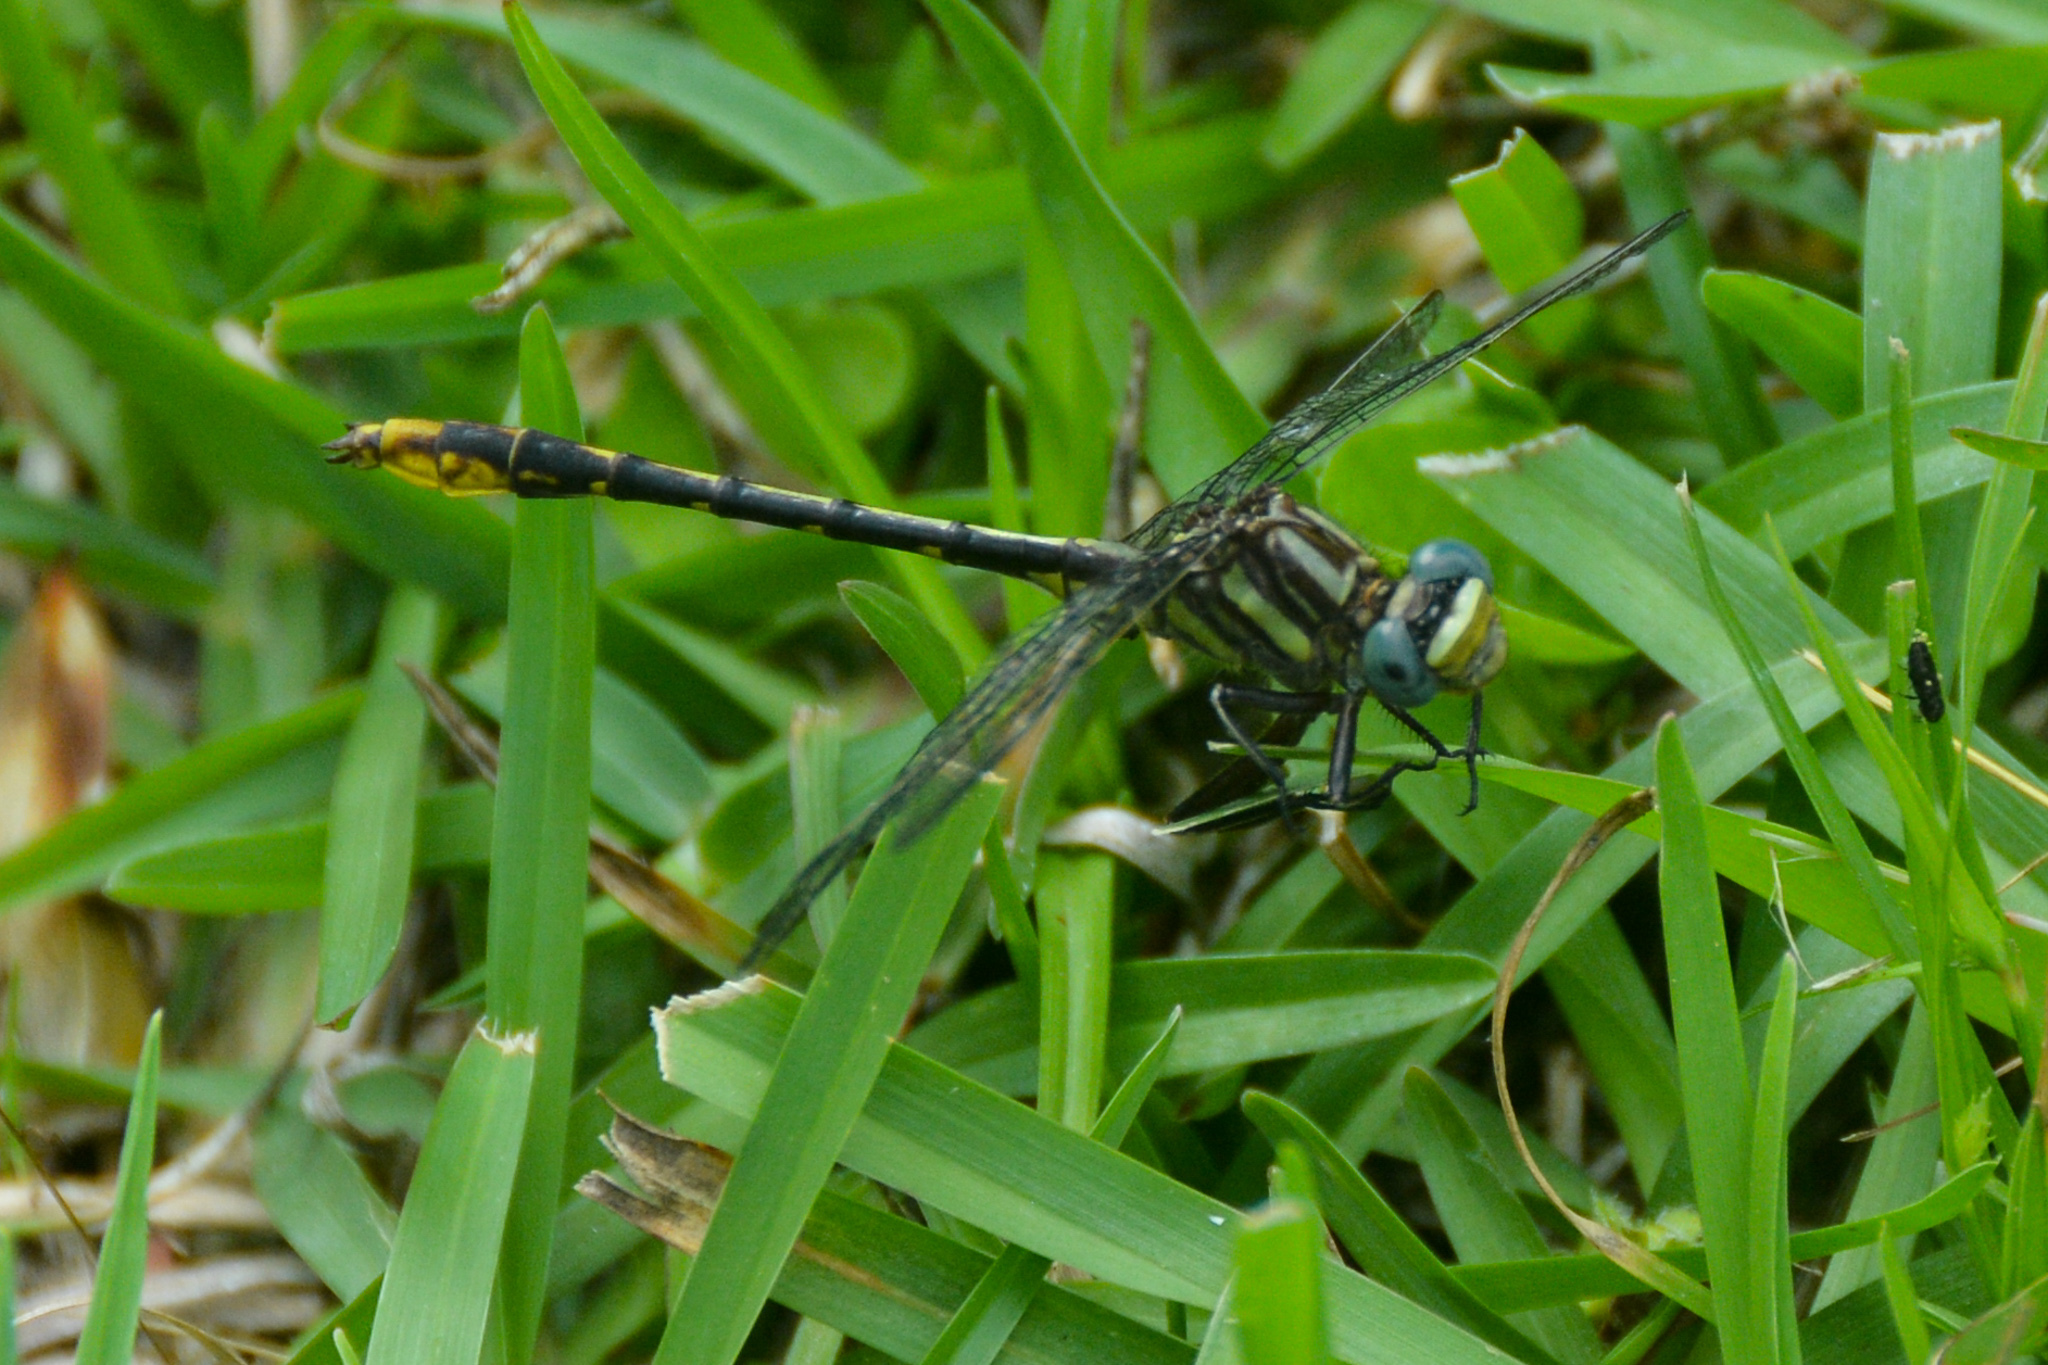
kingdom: Animalia
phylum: Arthropoda
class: Insecta
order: Odonata
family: Gomphidae
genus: Phanogomphus
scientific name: Phanogomphus exilis
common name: Lancet clubtail
